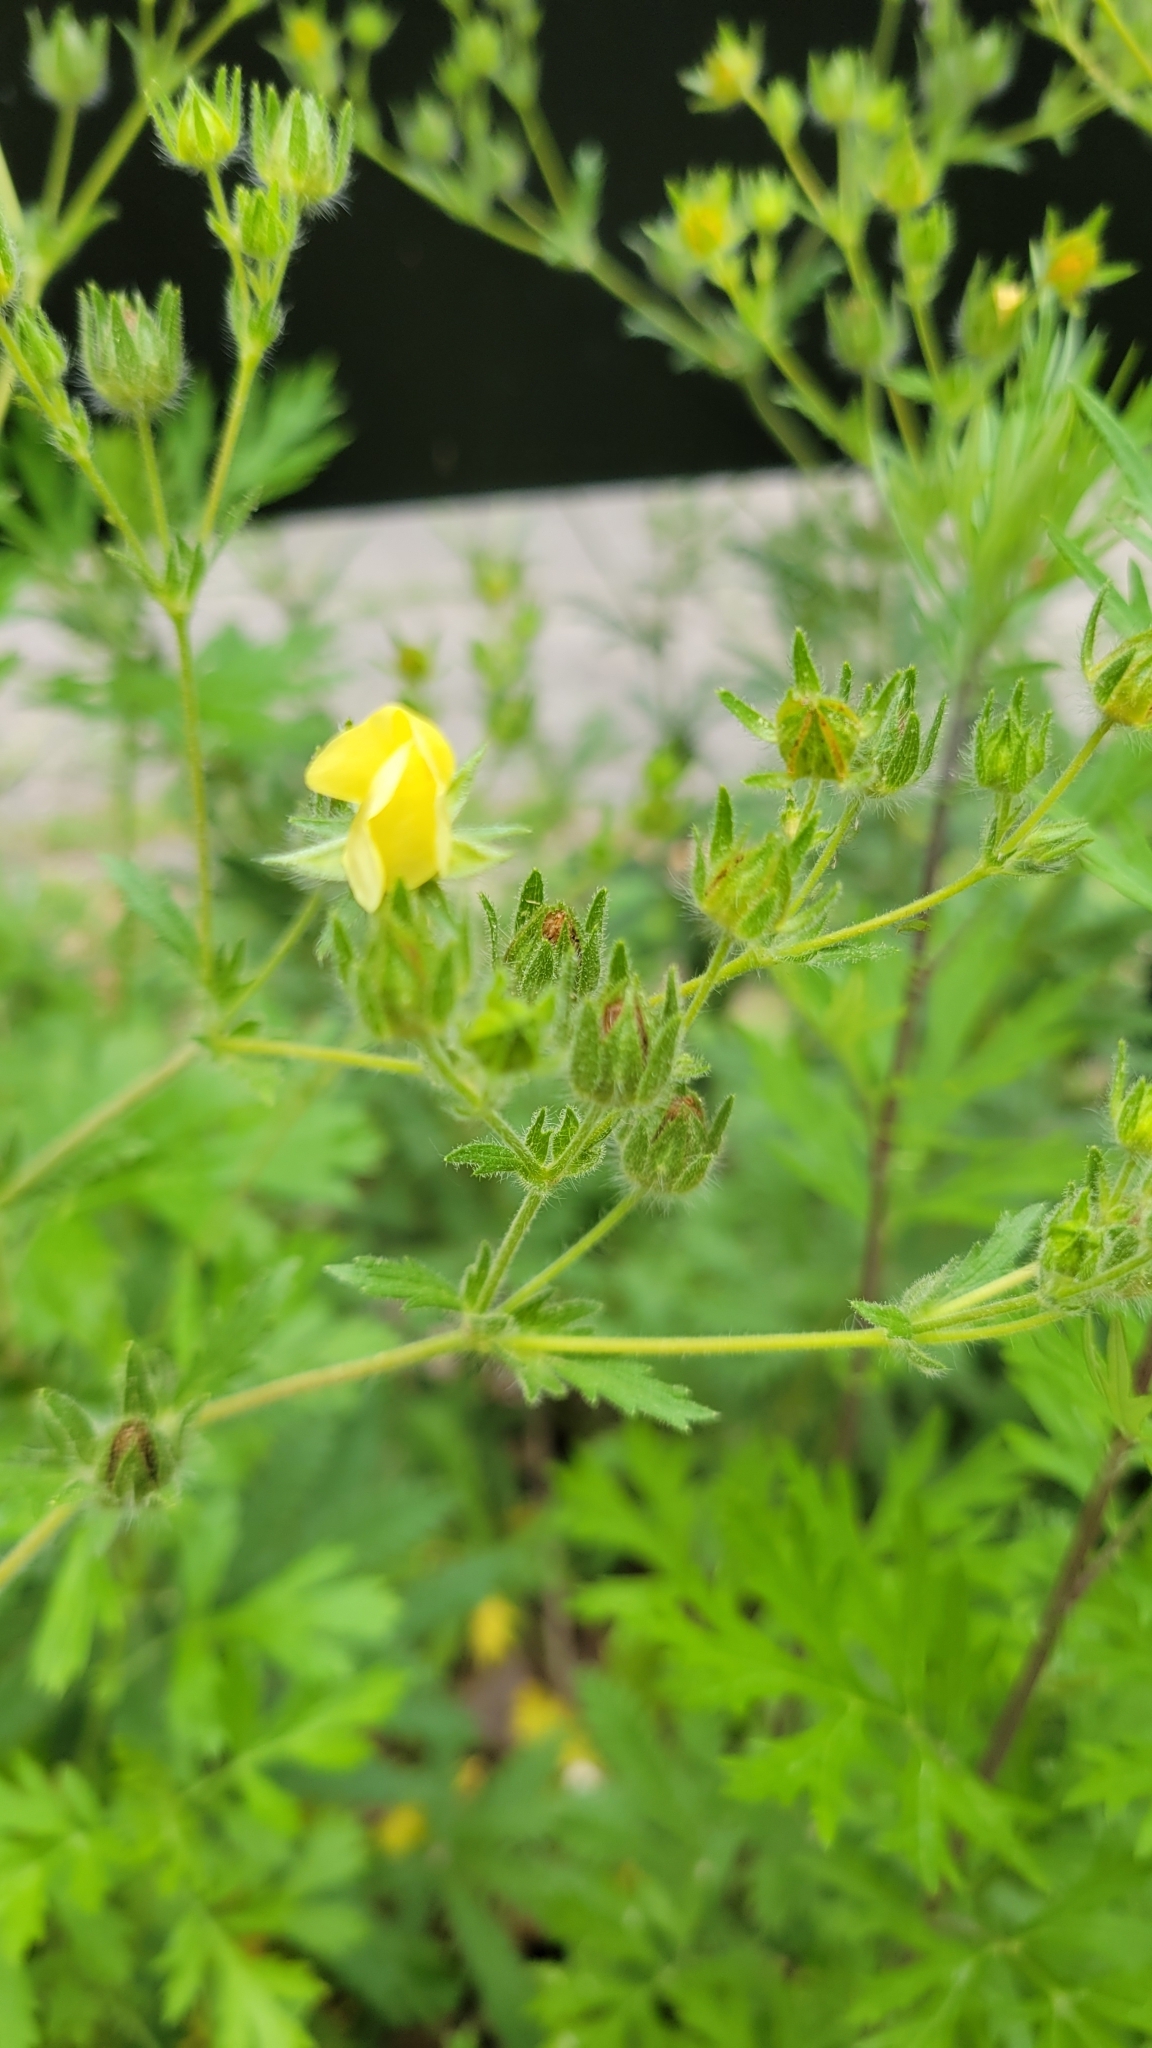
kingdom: Plantae
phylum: Tracheophyta
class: Magnoliopsida
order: Rosales
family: Rosaceae
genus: Potentilla
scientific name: Potentilla recta
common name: Sulphur cinquefoil
